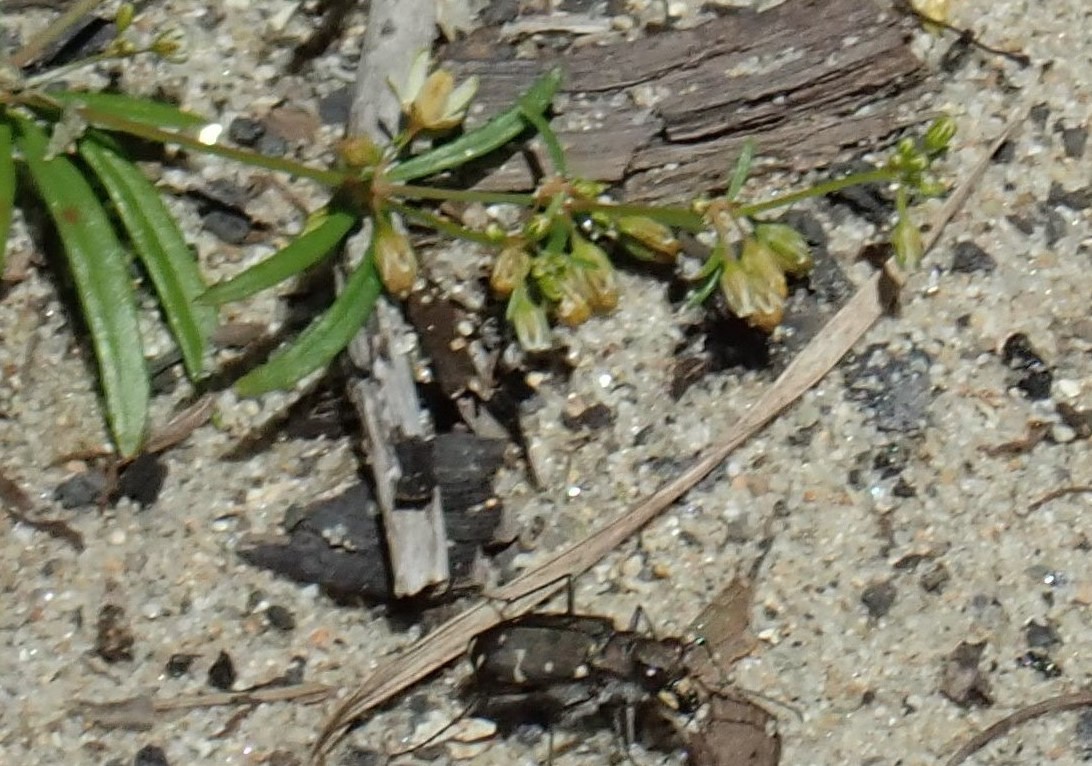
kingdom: Animalia
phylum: Arthropoda
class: Insecta
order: Coleoptera
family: Carabidae
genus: Cicindela
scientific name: Cicindela duodecimguttata
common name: Twelve-spotted tiger beetle
